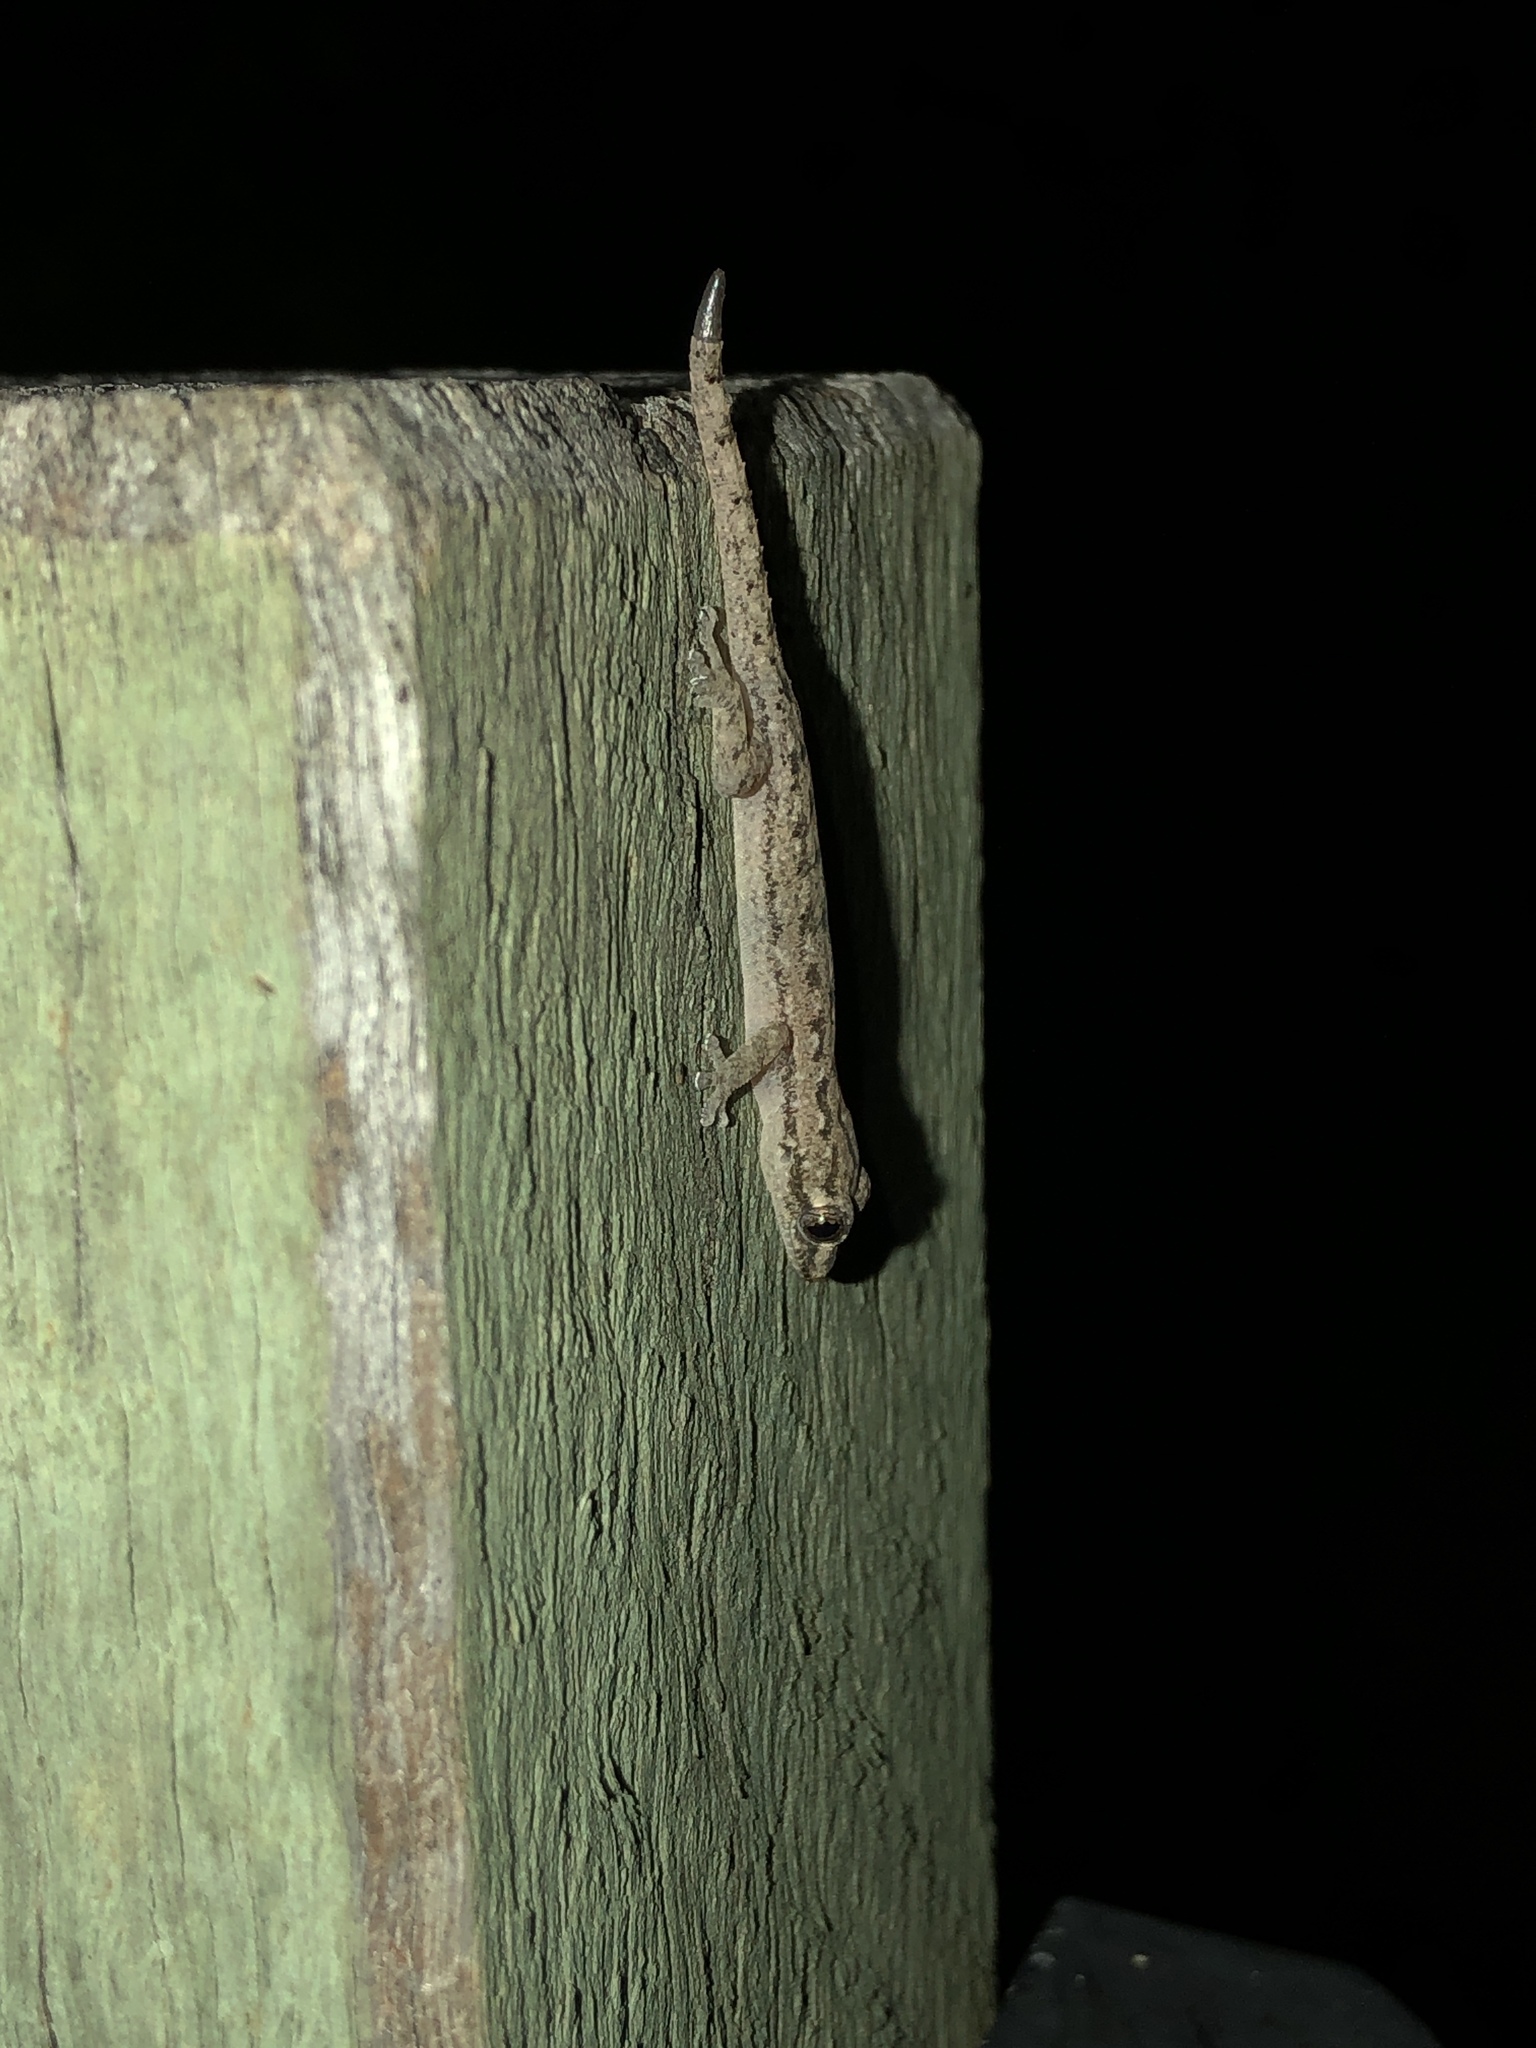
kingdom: Animalia
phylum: Chordata
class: Squamata
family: Gekkonidae
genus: Hemidactylus
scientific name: Hemidactylus frenatus
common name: Common house gecko
